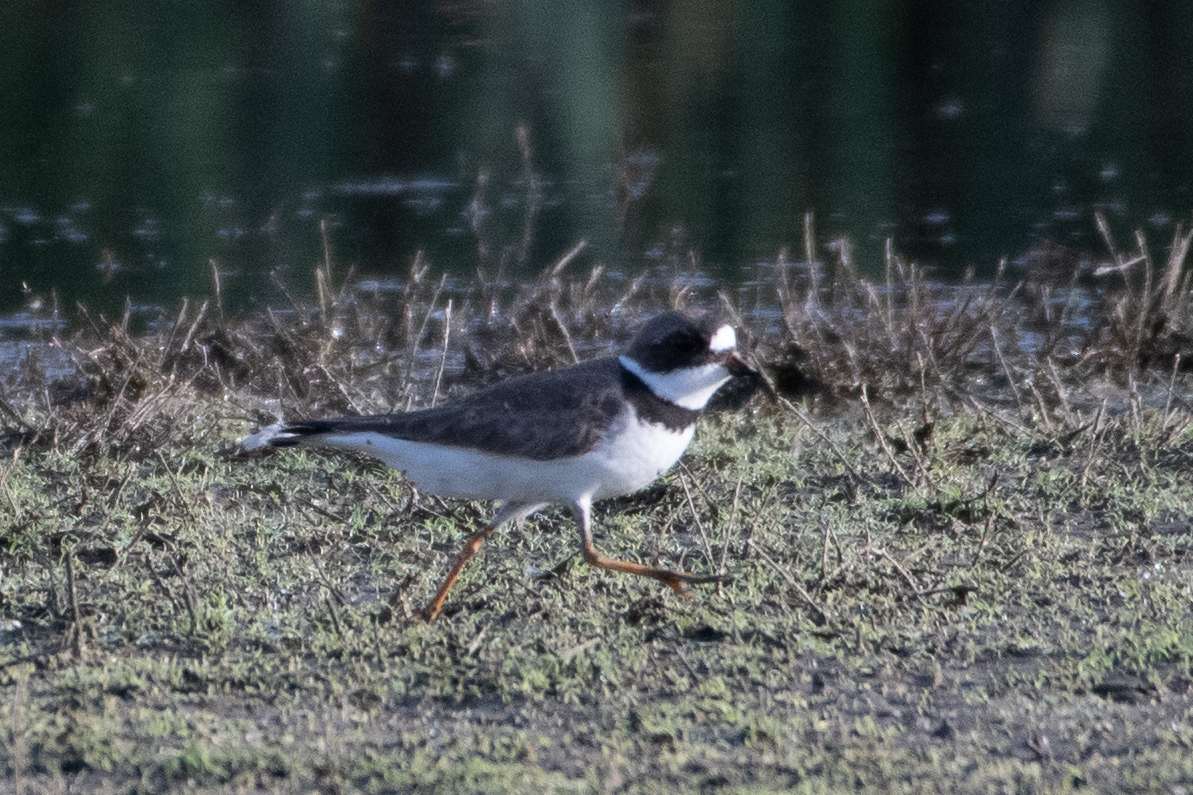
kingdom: Animalia
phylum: Chordata
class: Aves
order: Charadriiformes
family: Charadriidae
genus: Charadrius
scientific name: Charadrius semipalmatus
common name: Semipalmated plover
